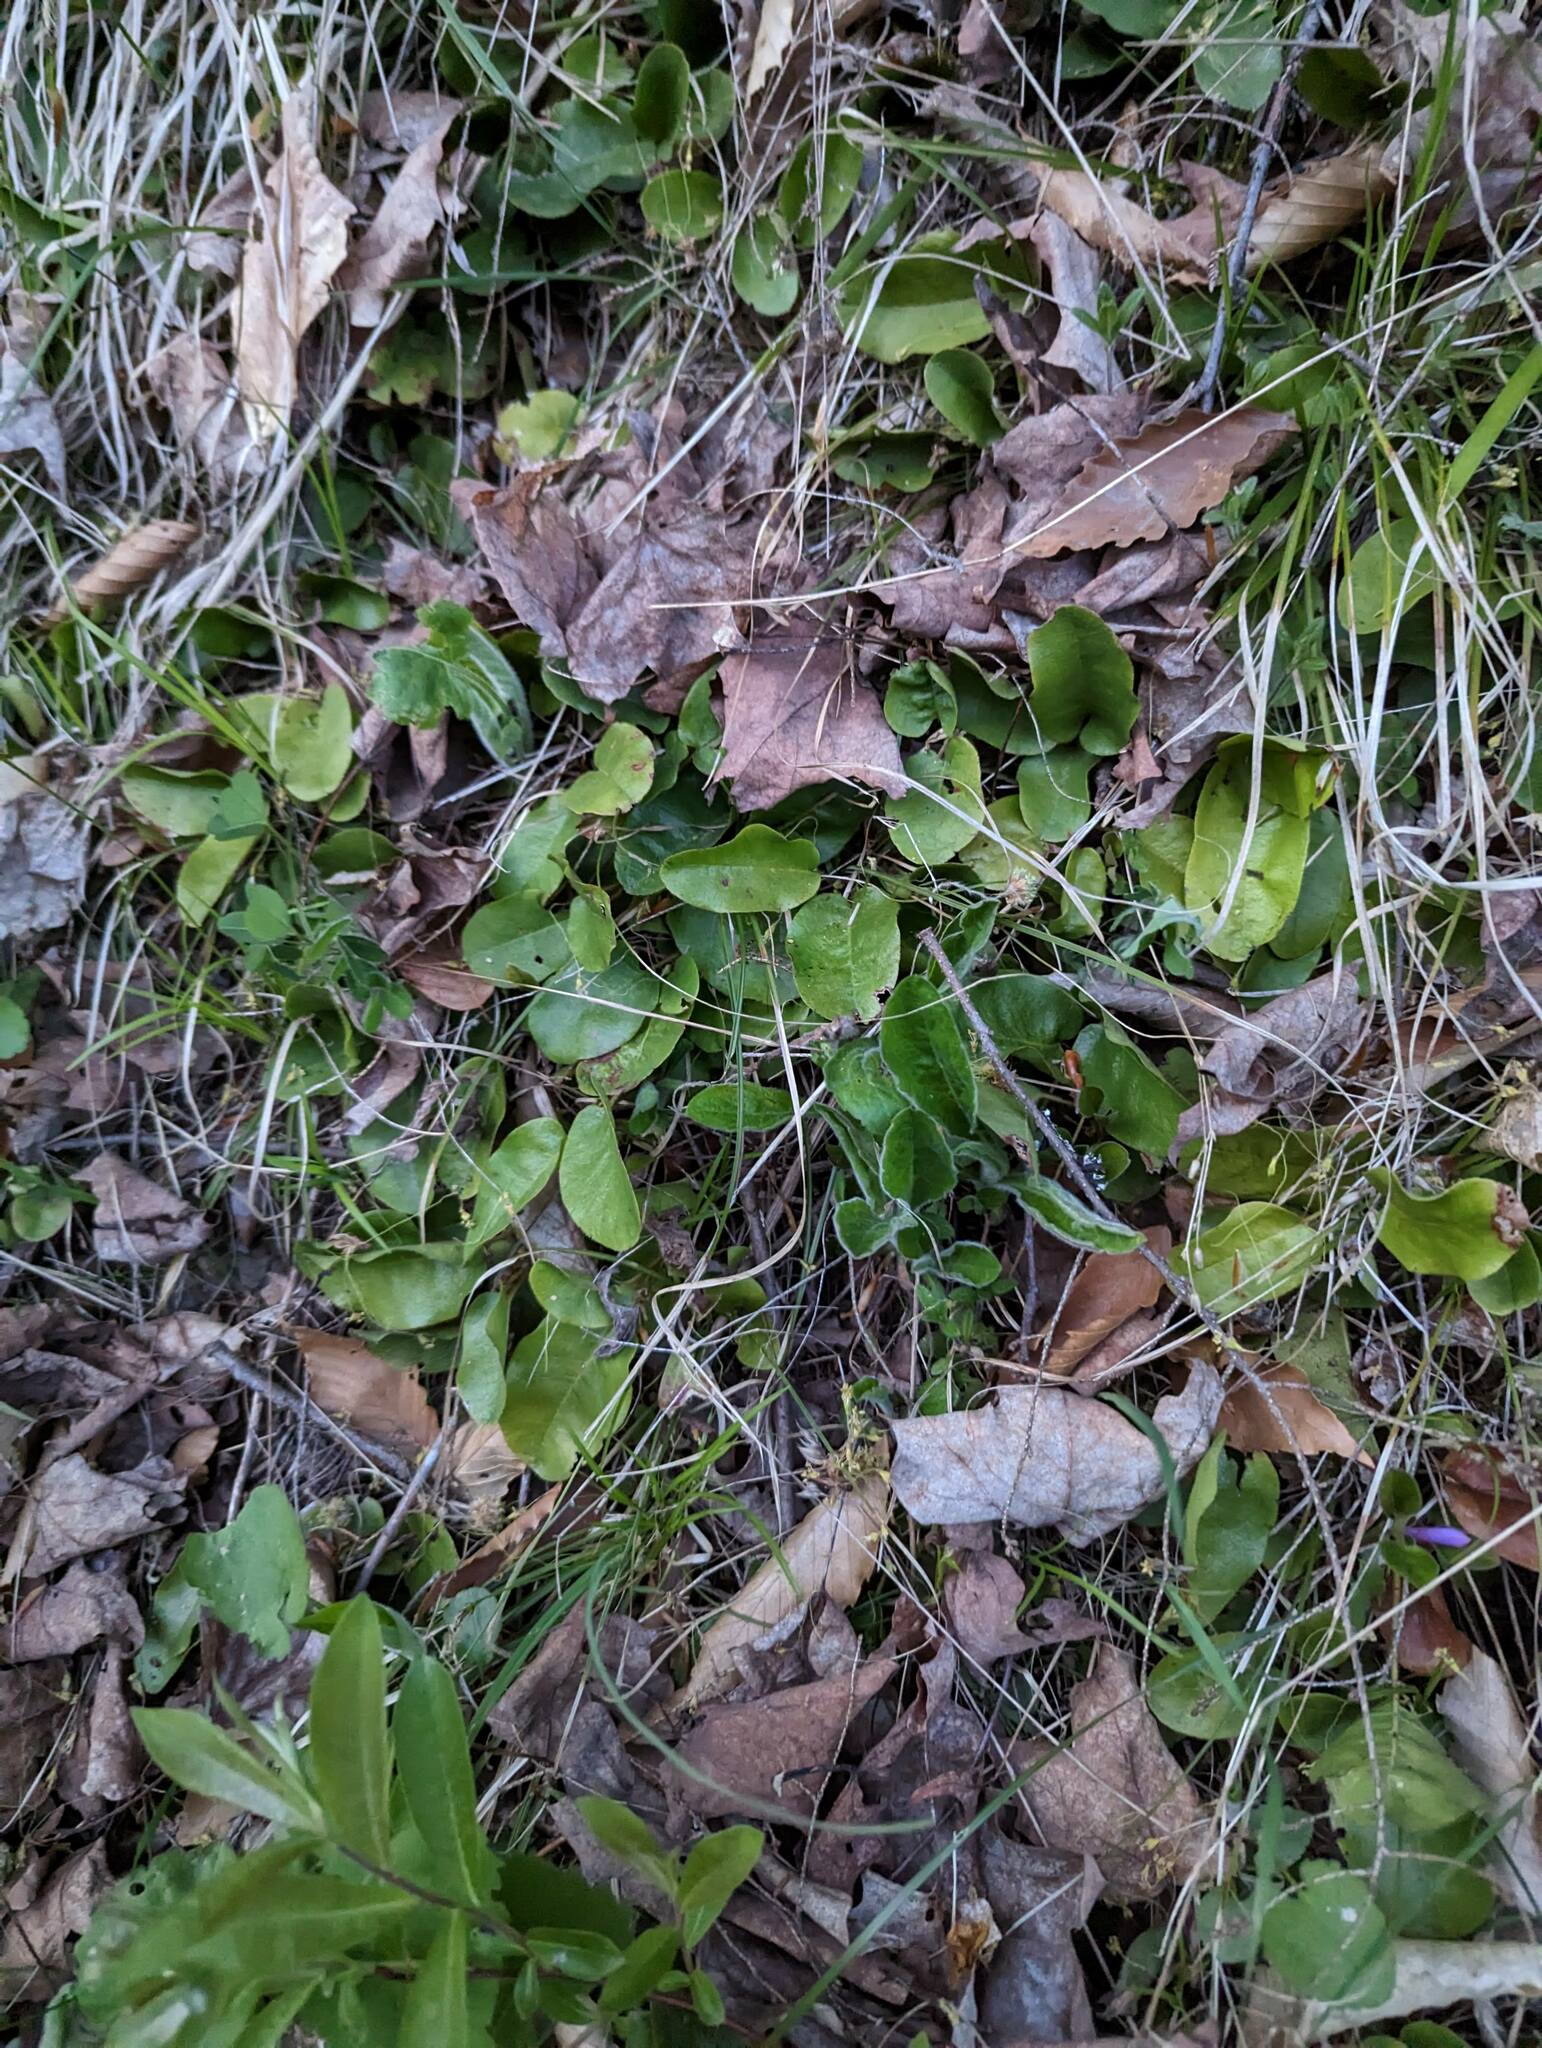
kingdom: Plantae
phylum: Tracheophyta
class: Magnoliopsida
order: Ericales
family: Ericaceae
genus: Epigaea
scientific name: Epigaea repens
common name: Gravelroot
